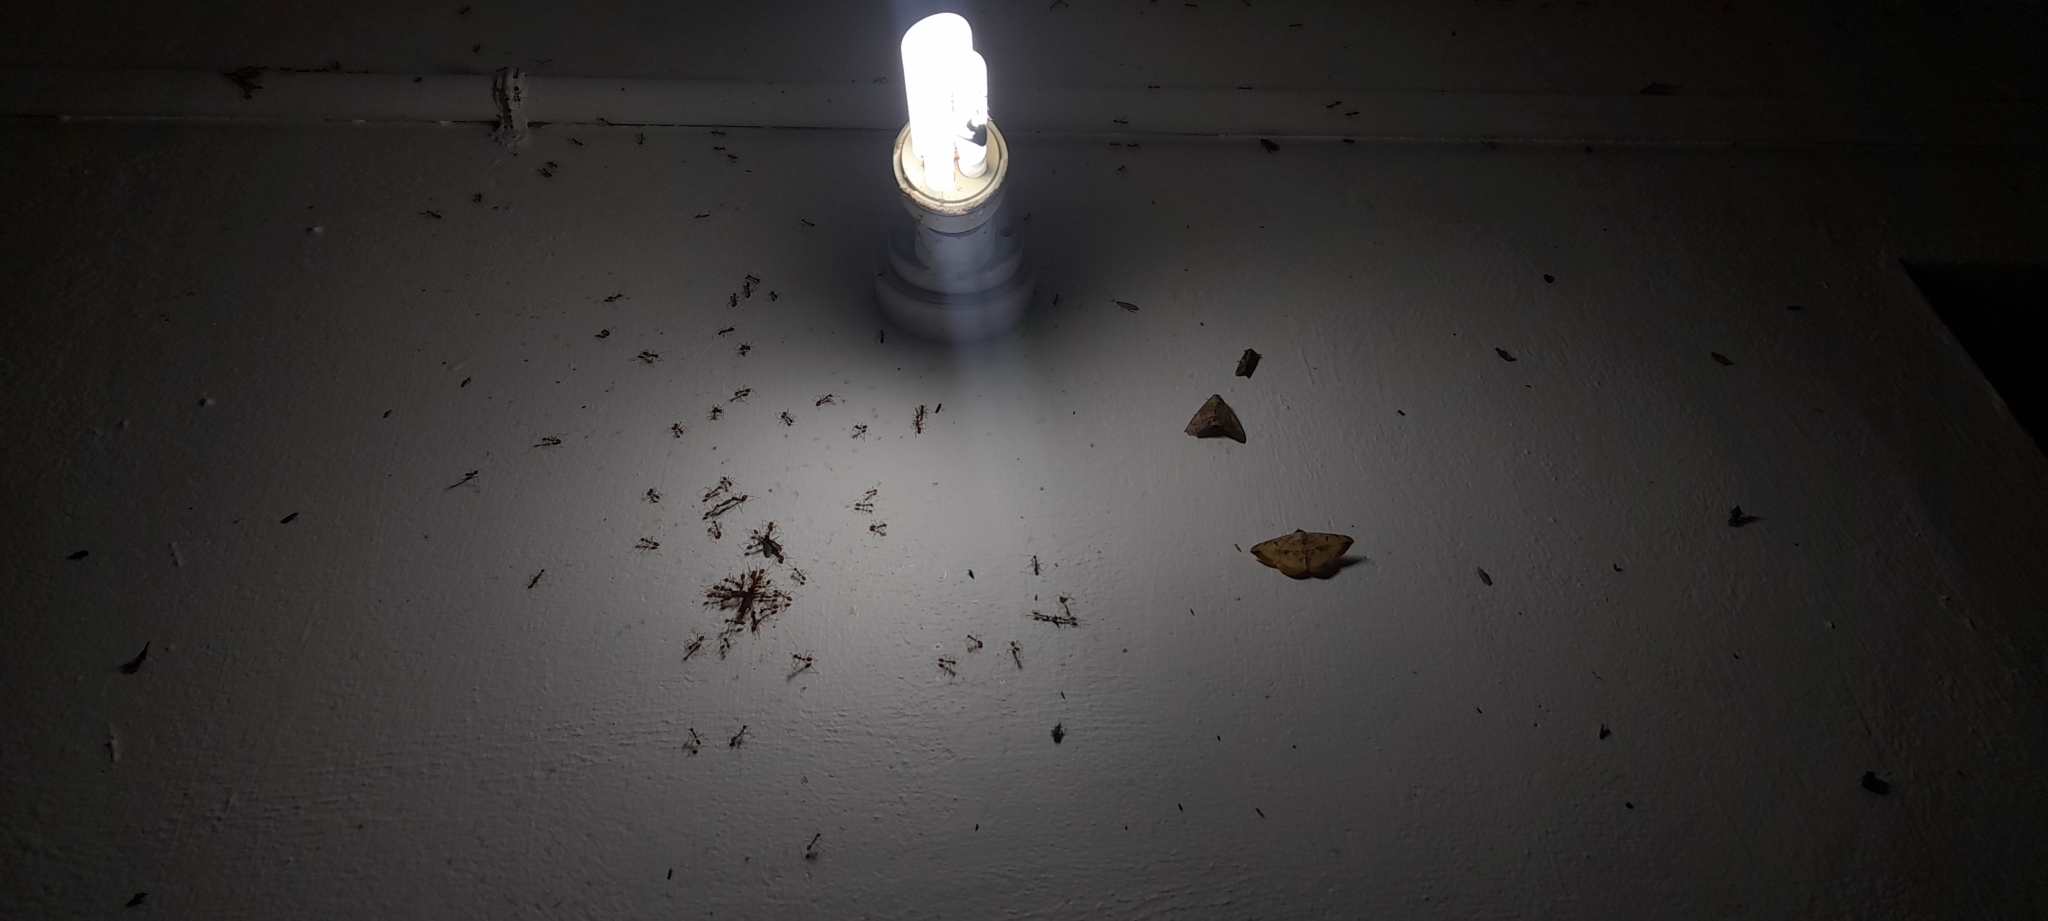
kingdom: Animalia
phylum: Arthropoda
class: Insecta
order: Hymenoptera
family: Formicidae
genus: Oecophylla
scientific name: Oecophylla smaragdina
